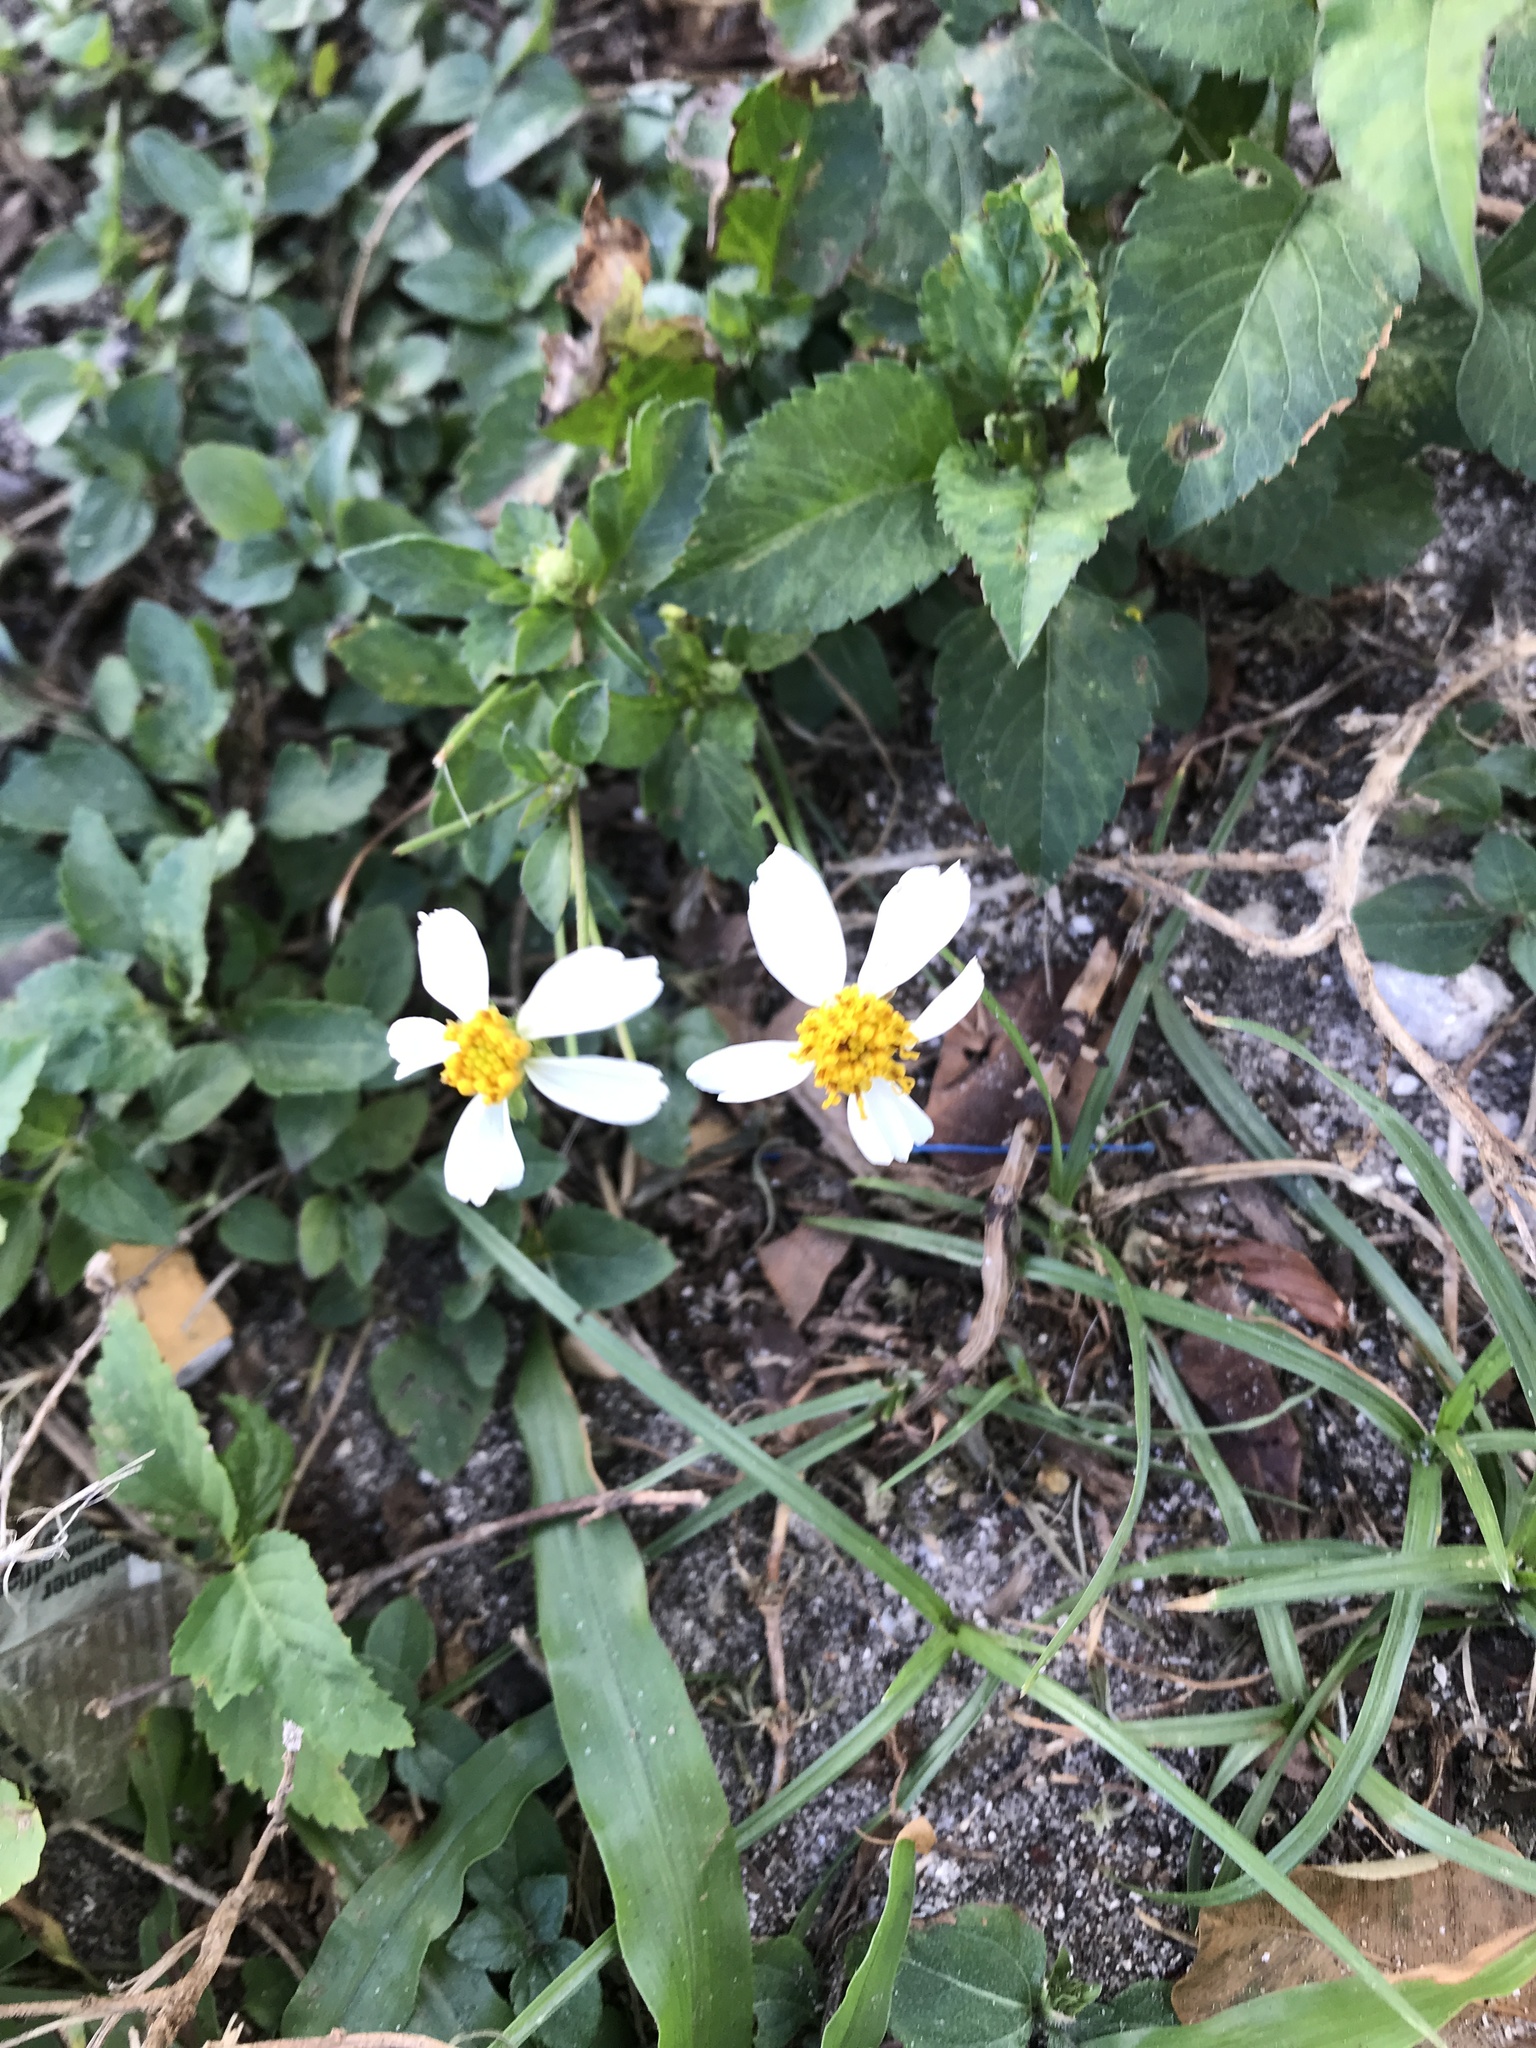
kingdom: Plantae
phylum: Tracheophyta
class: Magnoliopsida
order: Asterales
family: Asteraceae
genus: Bidens
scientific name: Bidens alba
